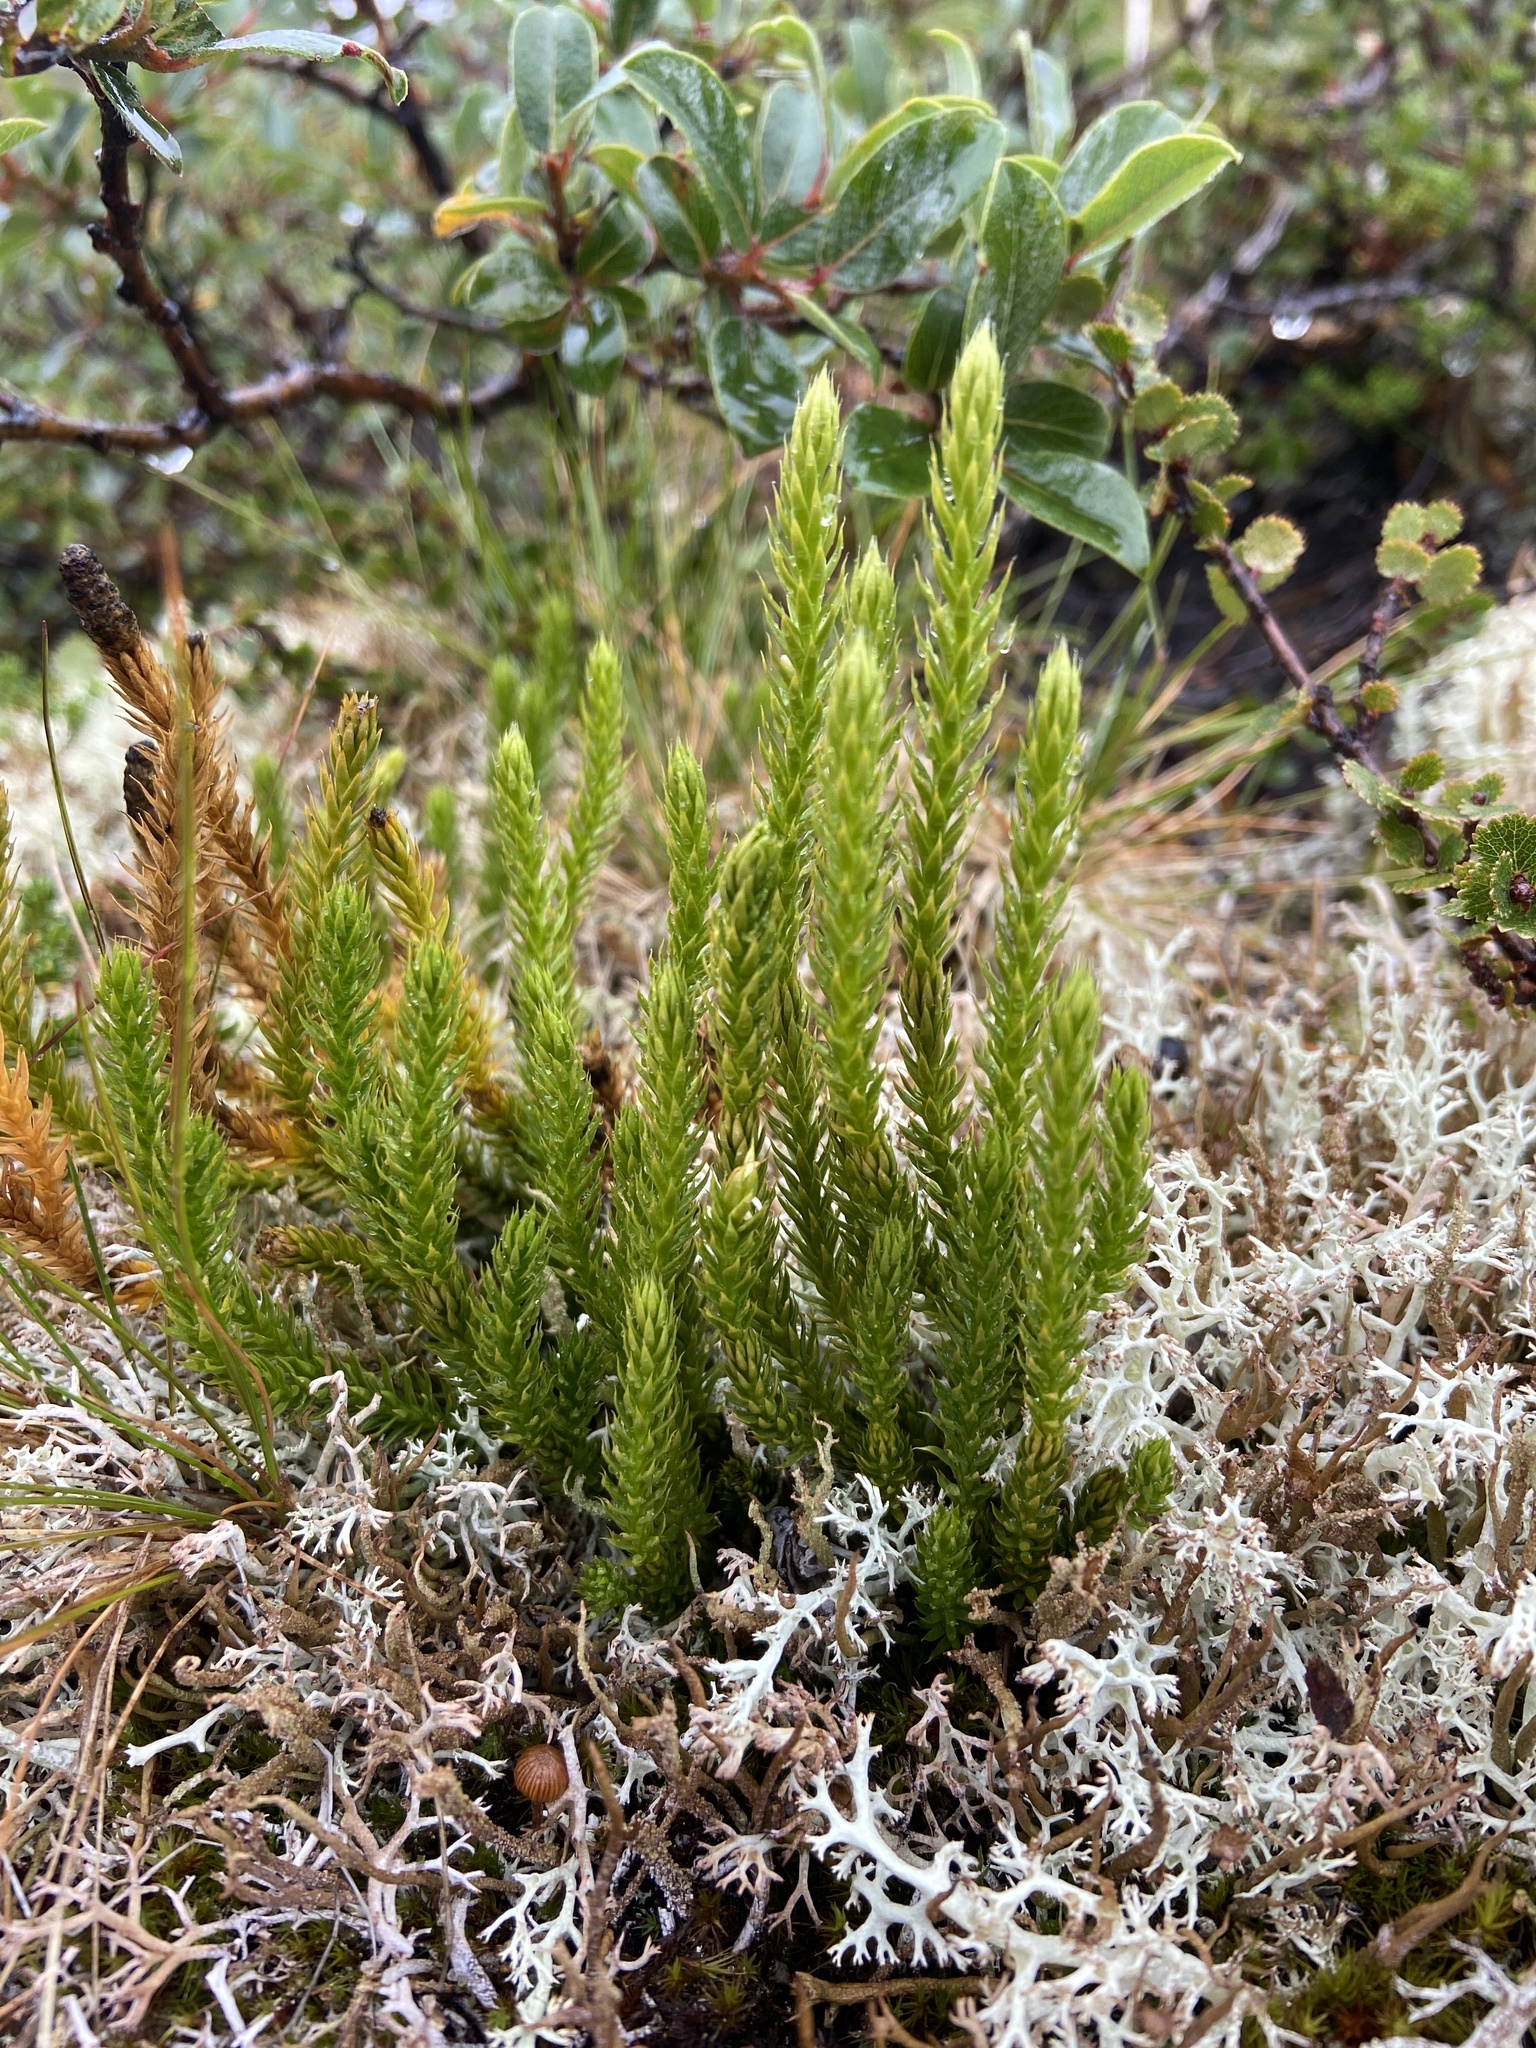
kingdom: Plantae
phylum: Tracheophyta
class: Lycopodiopsida
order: Lycopodiales
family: Lycopodiaceae
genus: Spinulum
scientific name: Spinulum annotinum
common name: Interrupted club-moss
